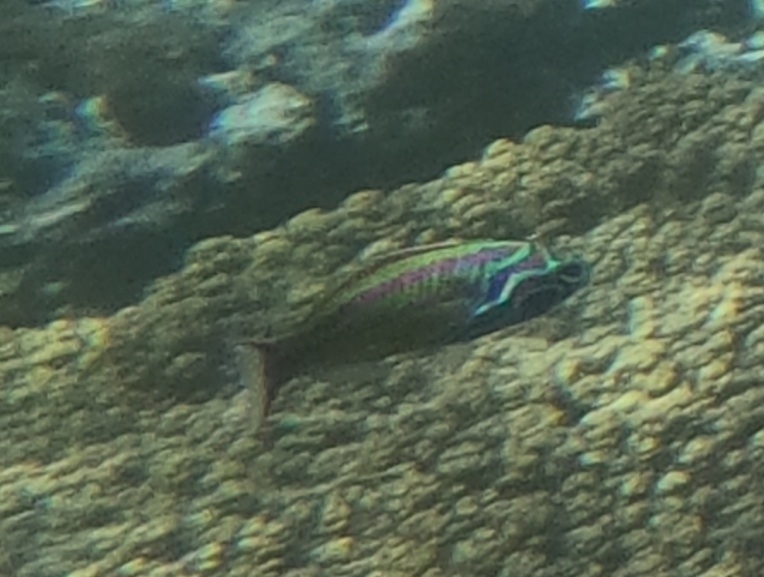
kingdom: Animalia
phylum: Chordata
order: Perciformes
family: Labridae
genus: Thalassoma
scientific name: Thalassoma quinquevittatum
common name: Five striped surge wrasse
